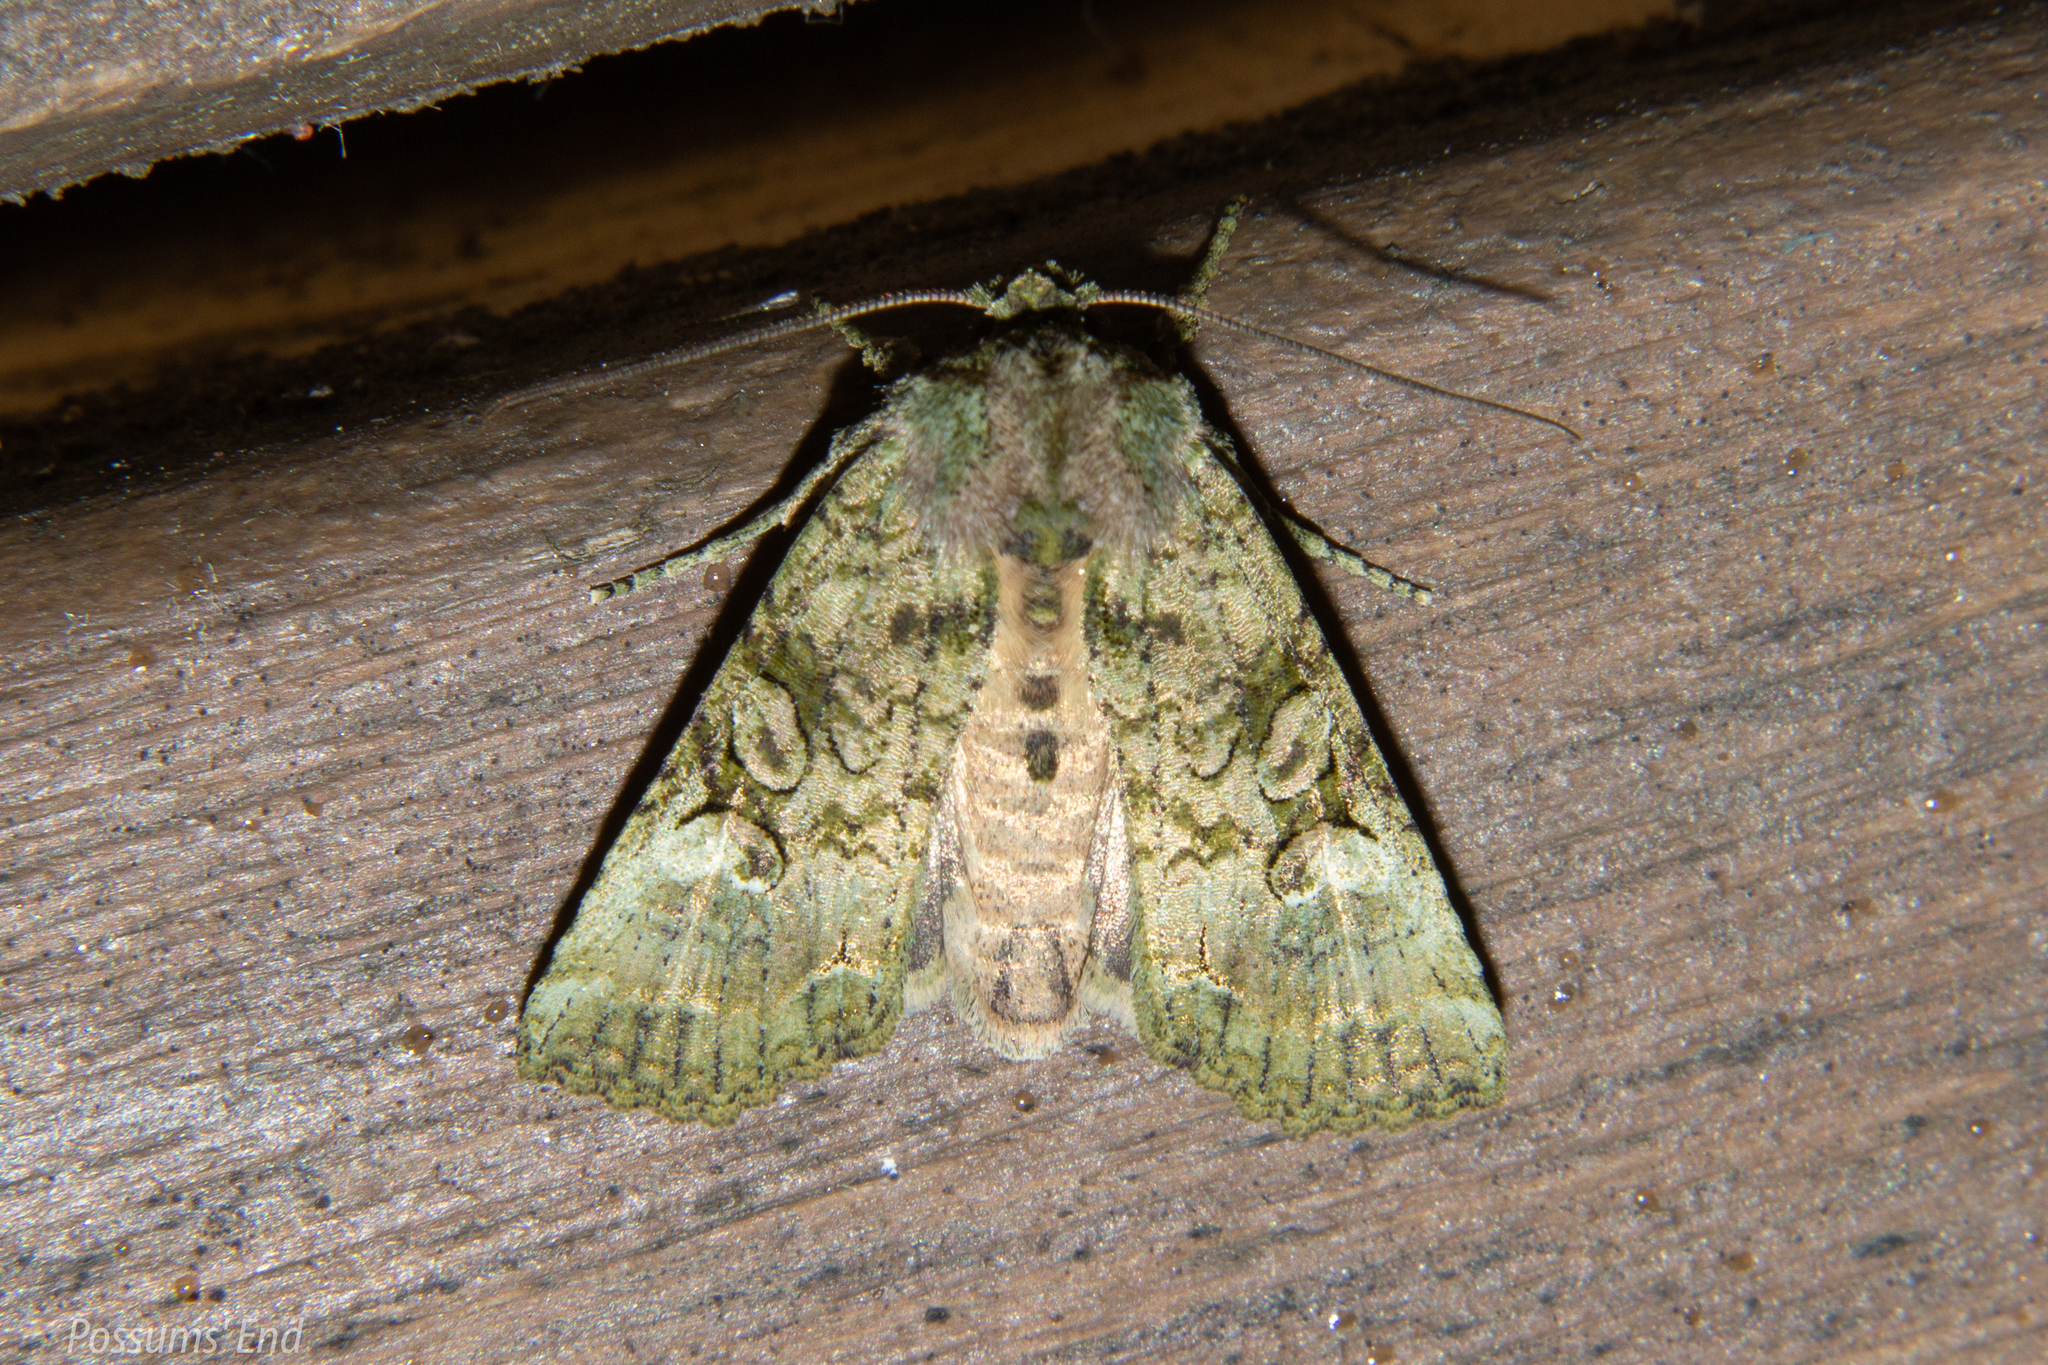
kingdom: Animalia
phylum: Arthropoda
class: Insecta
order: Lepidoptera
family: Noctuidae
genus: Meterana
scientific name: Meterana levis
